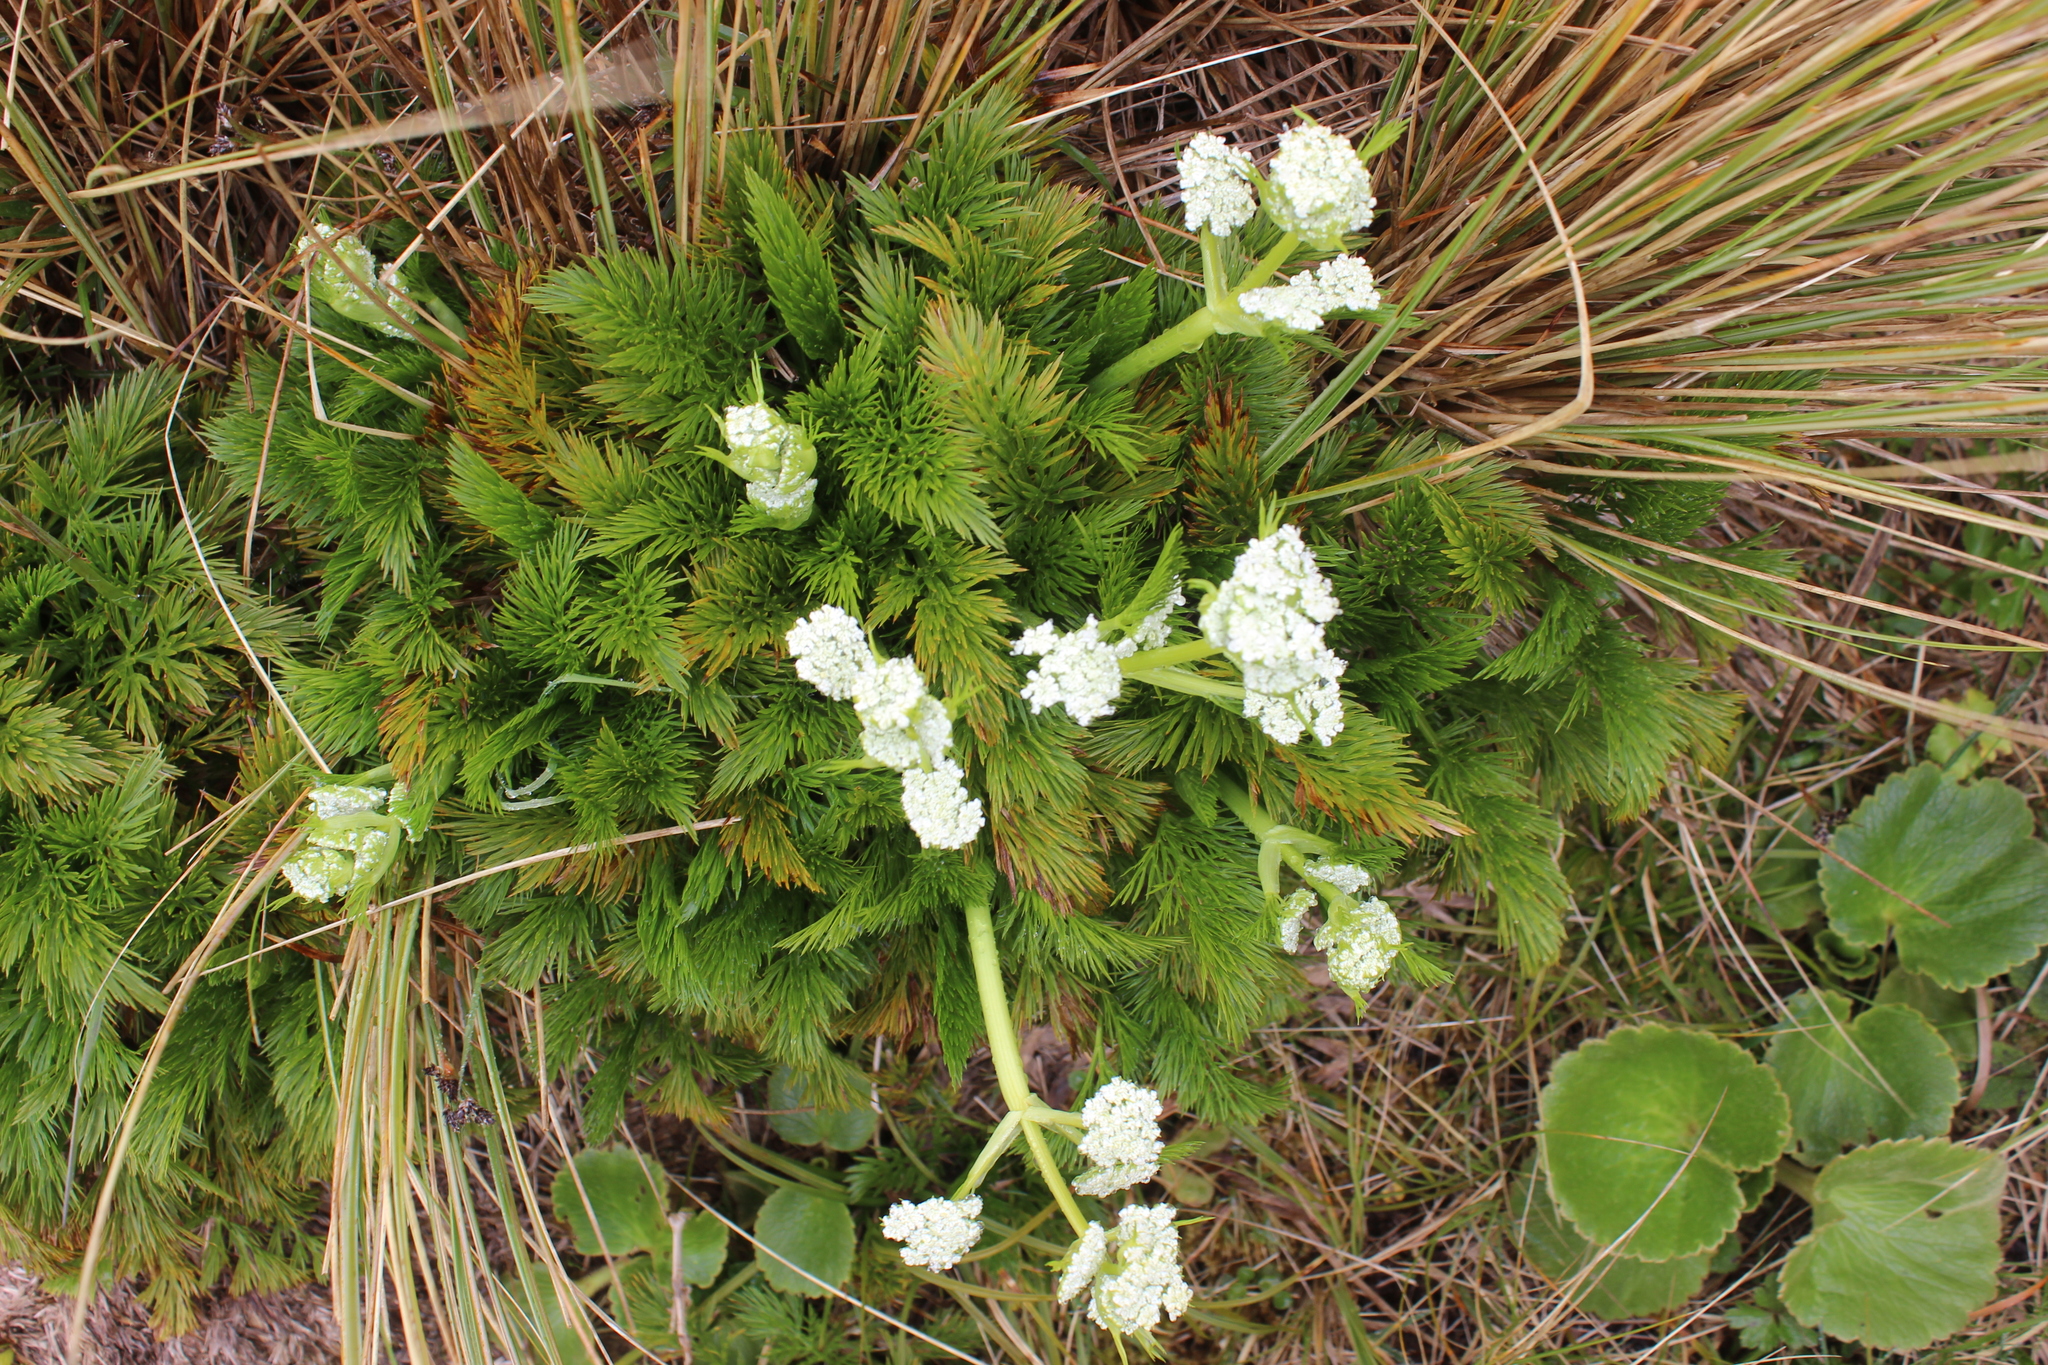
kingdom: Plantae
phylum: Tracheophyta
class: Magnoliopsida
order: Apiales
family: Apiaceae
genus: Aciphylla
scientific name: Aciphylla dissecta
